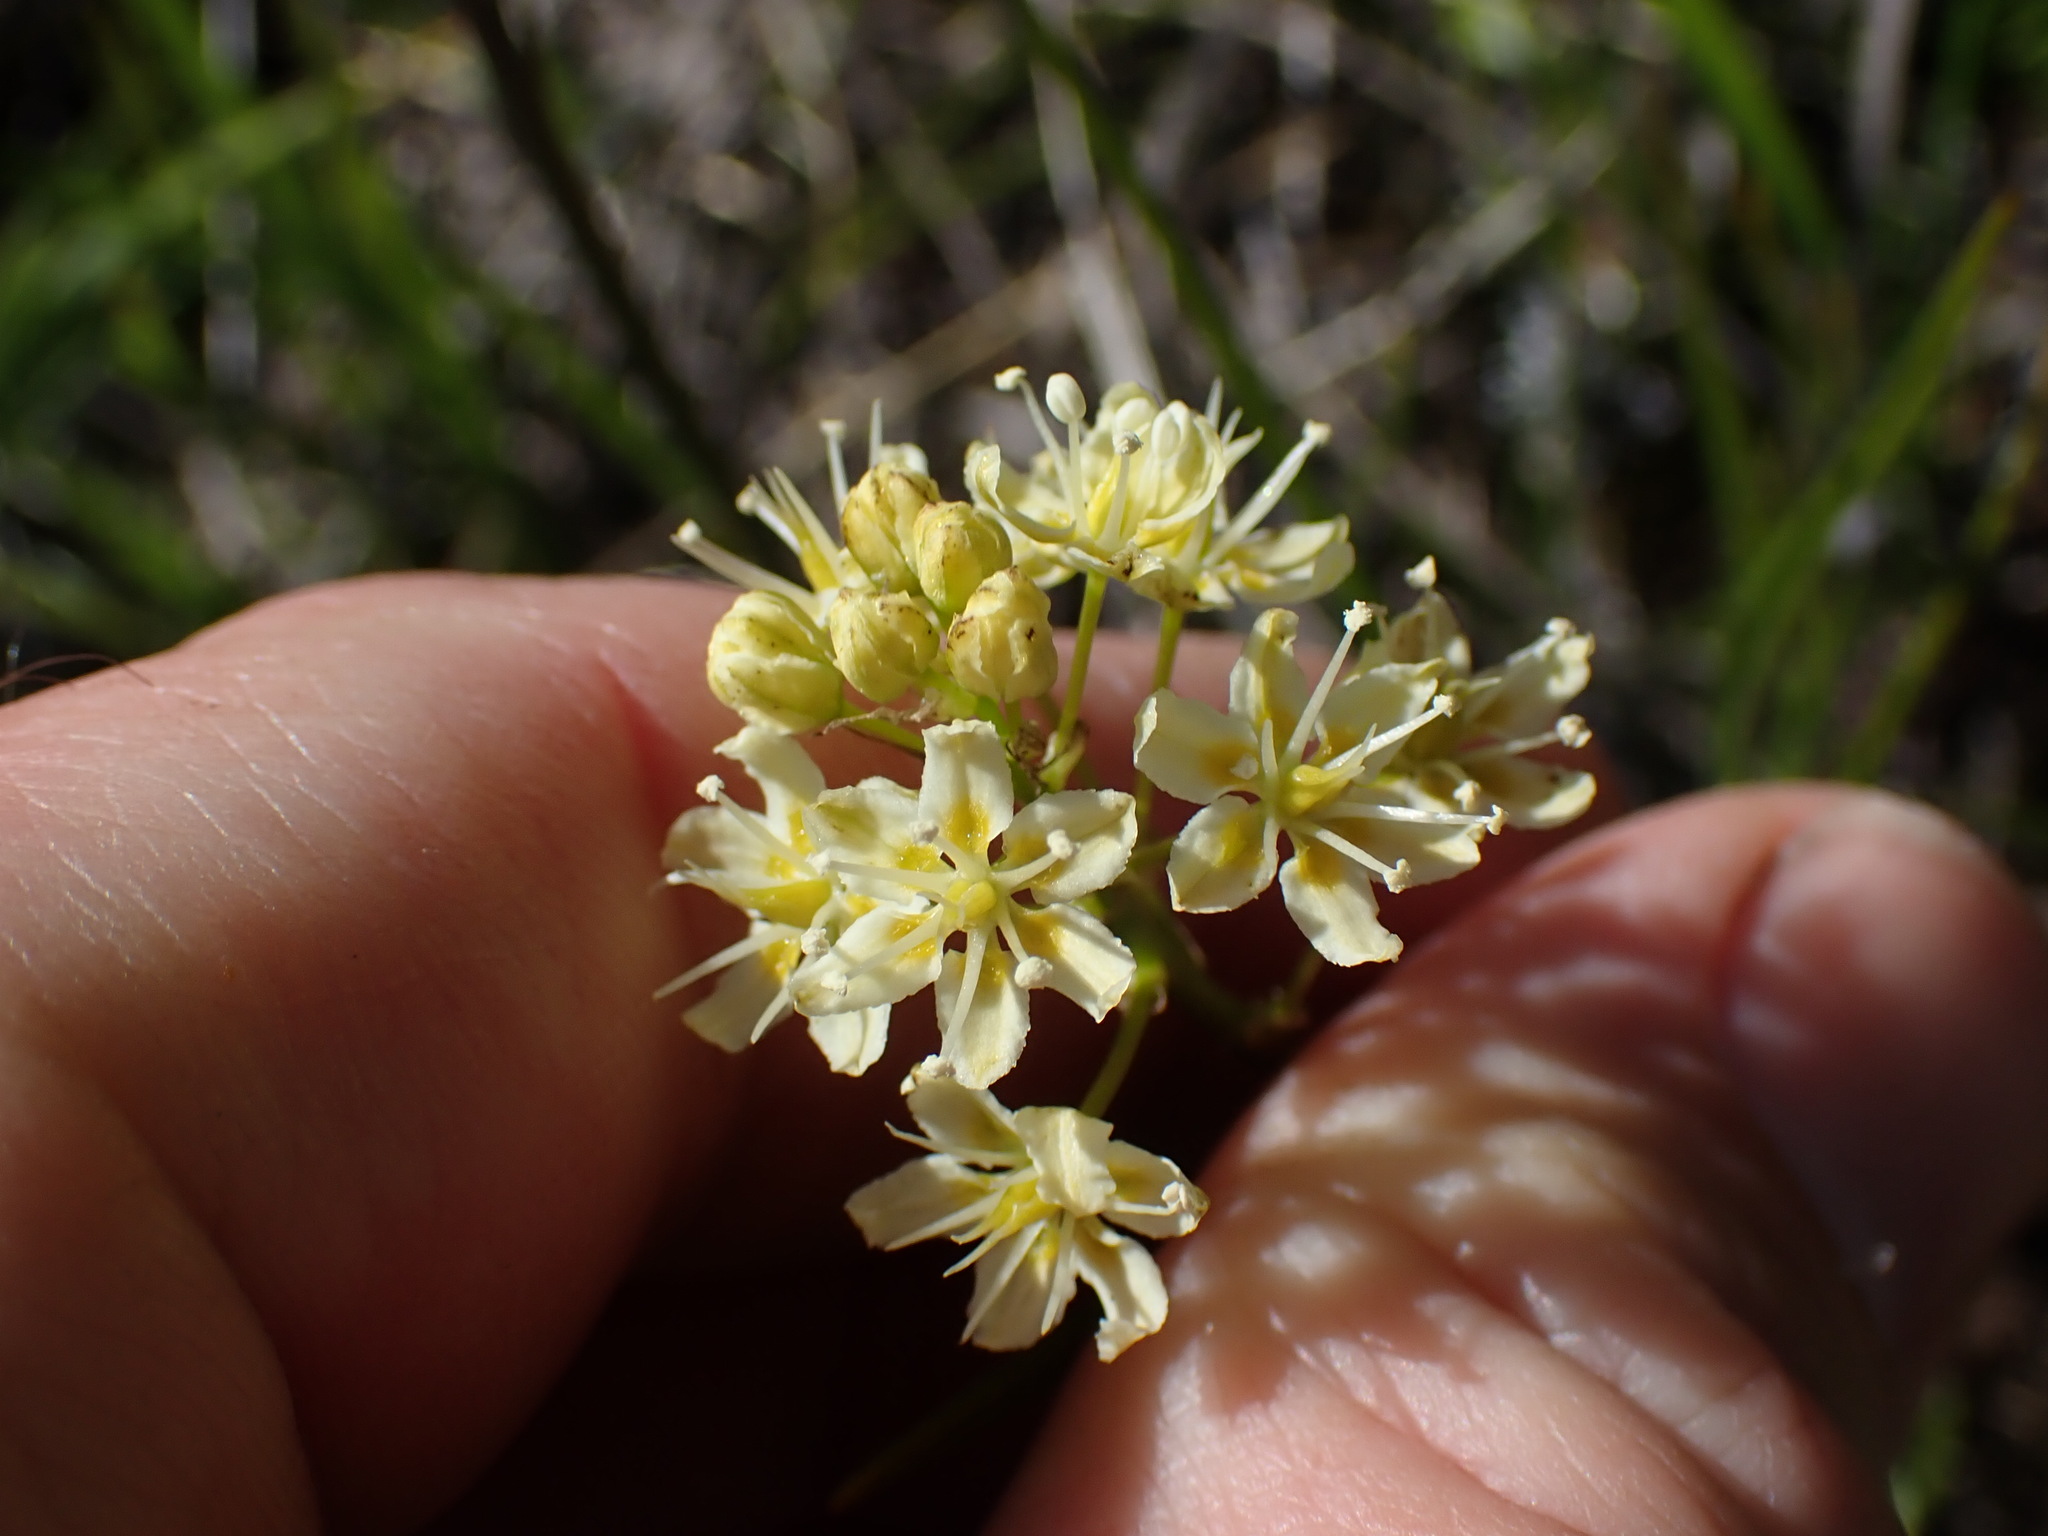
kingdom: Plantae
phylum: Tracheophyta
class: Liliopsida
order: Liliales
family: Melanthiaceae
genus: Toxicoscordion
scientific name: Toxicoscordion venenosum
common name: Meadow death camas
